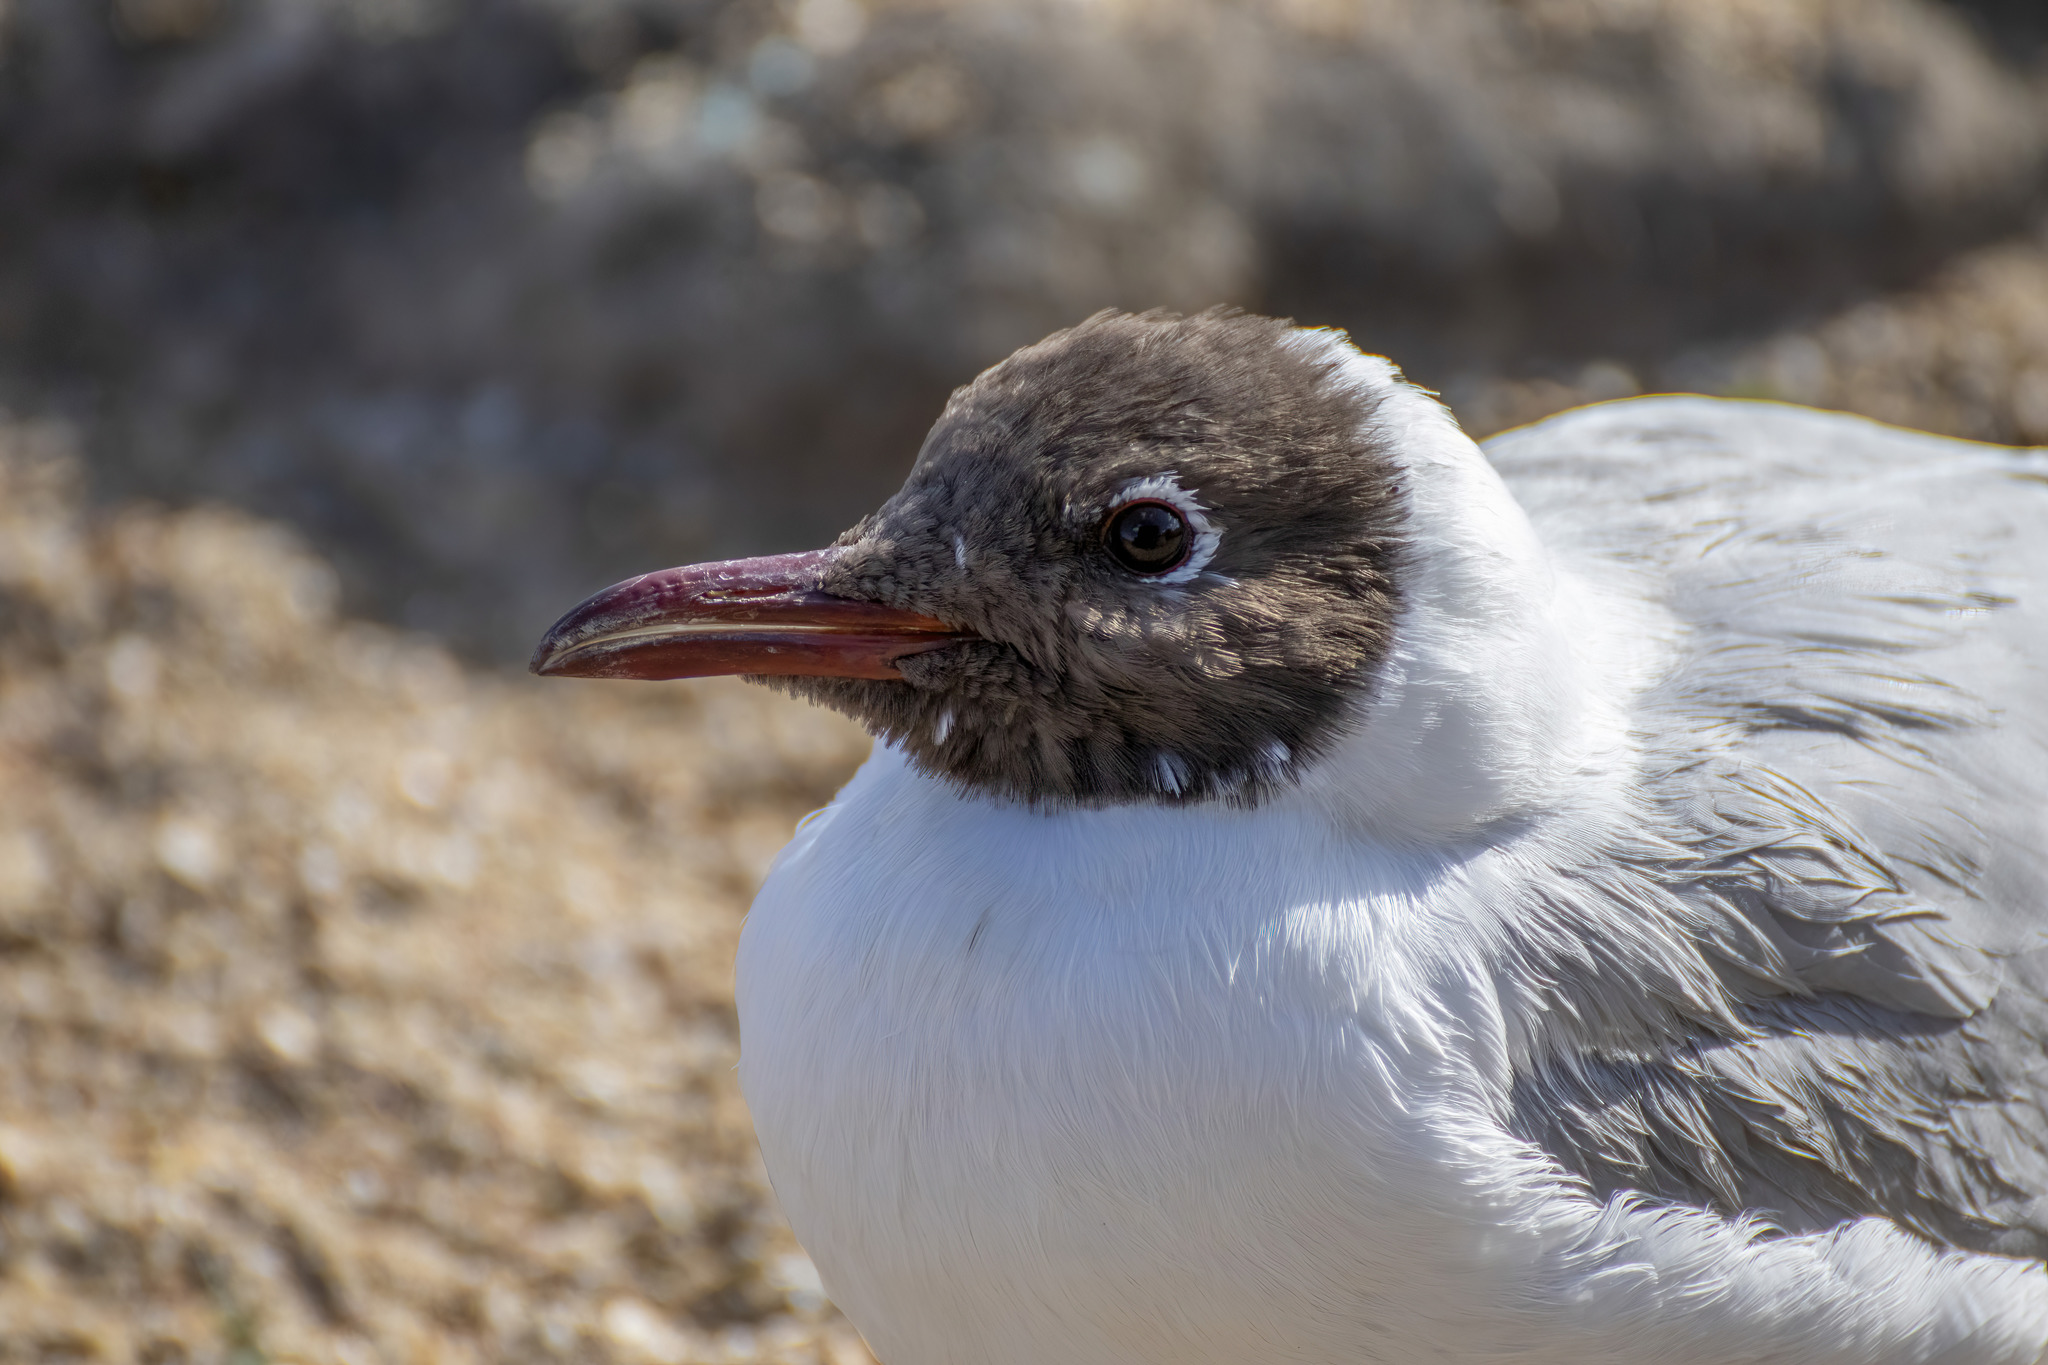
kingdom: Animalia
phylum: Chordata
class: Aves
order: Charadriiformes
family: Laridae
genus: Chroicocephalus
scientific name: Chroicocephalus ridibundus
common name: Black-headed gull
